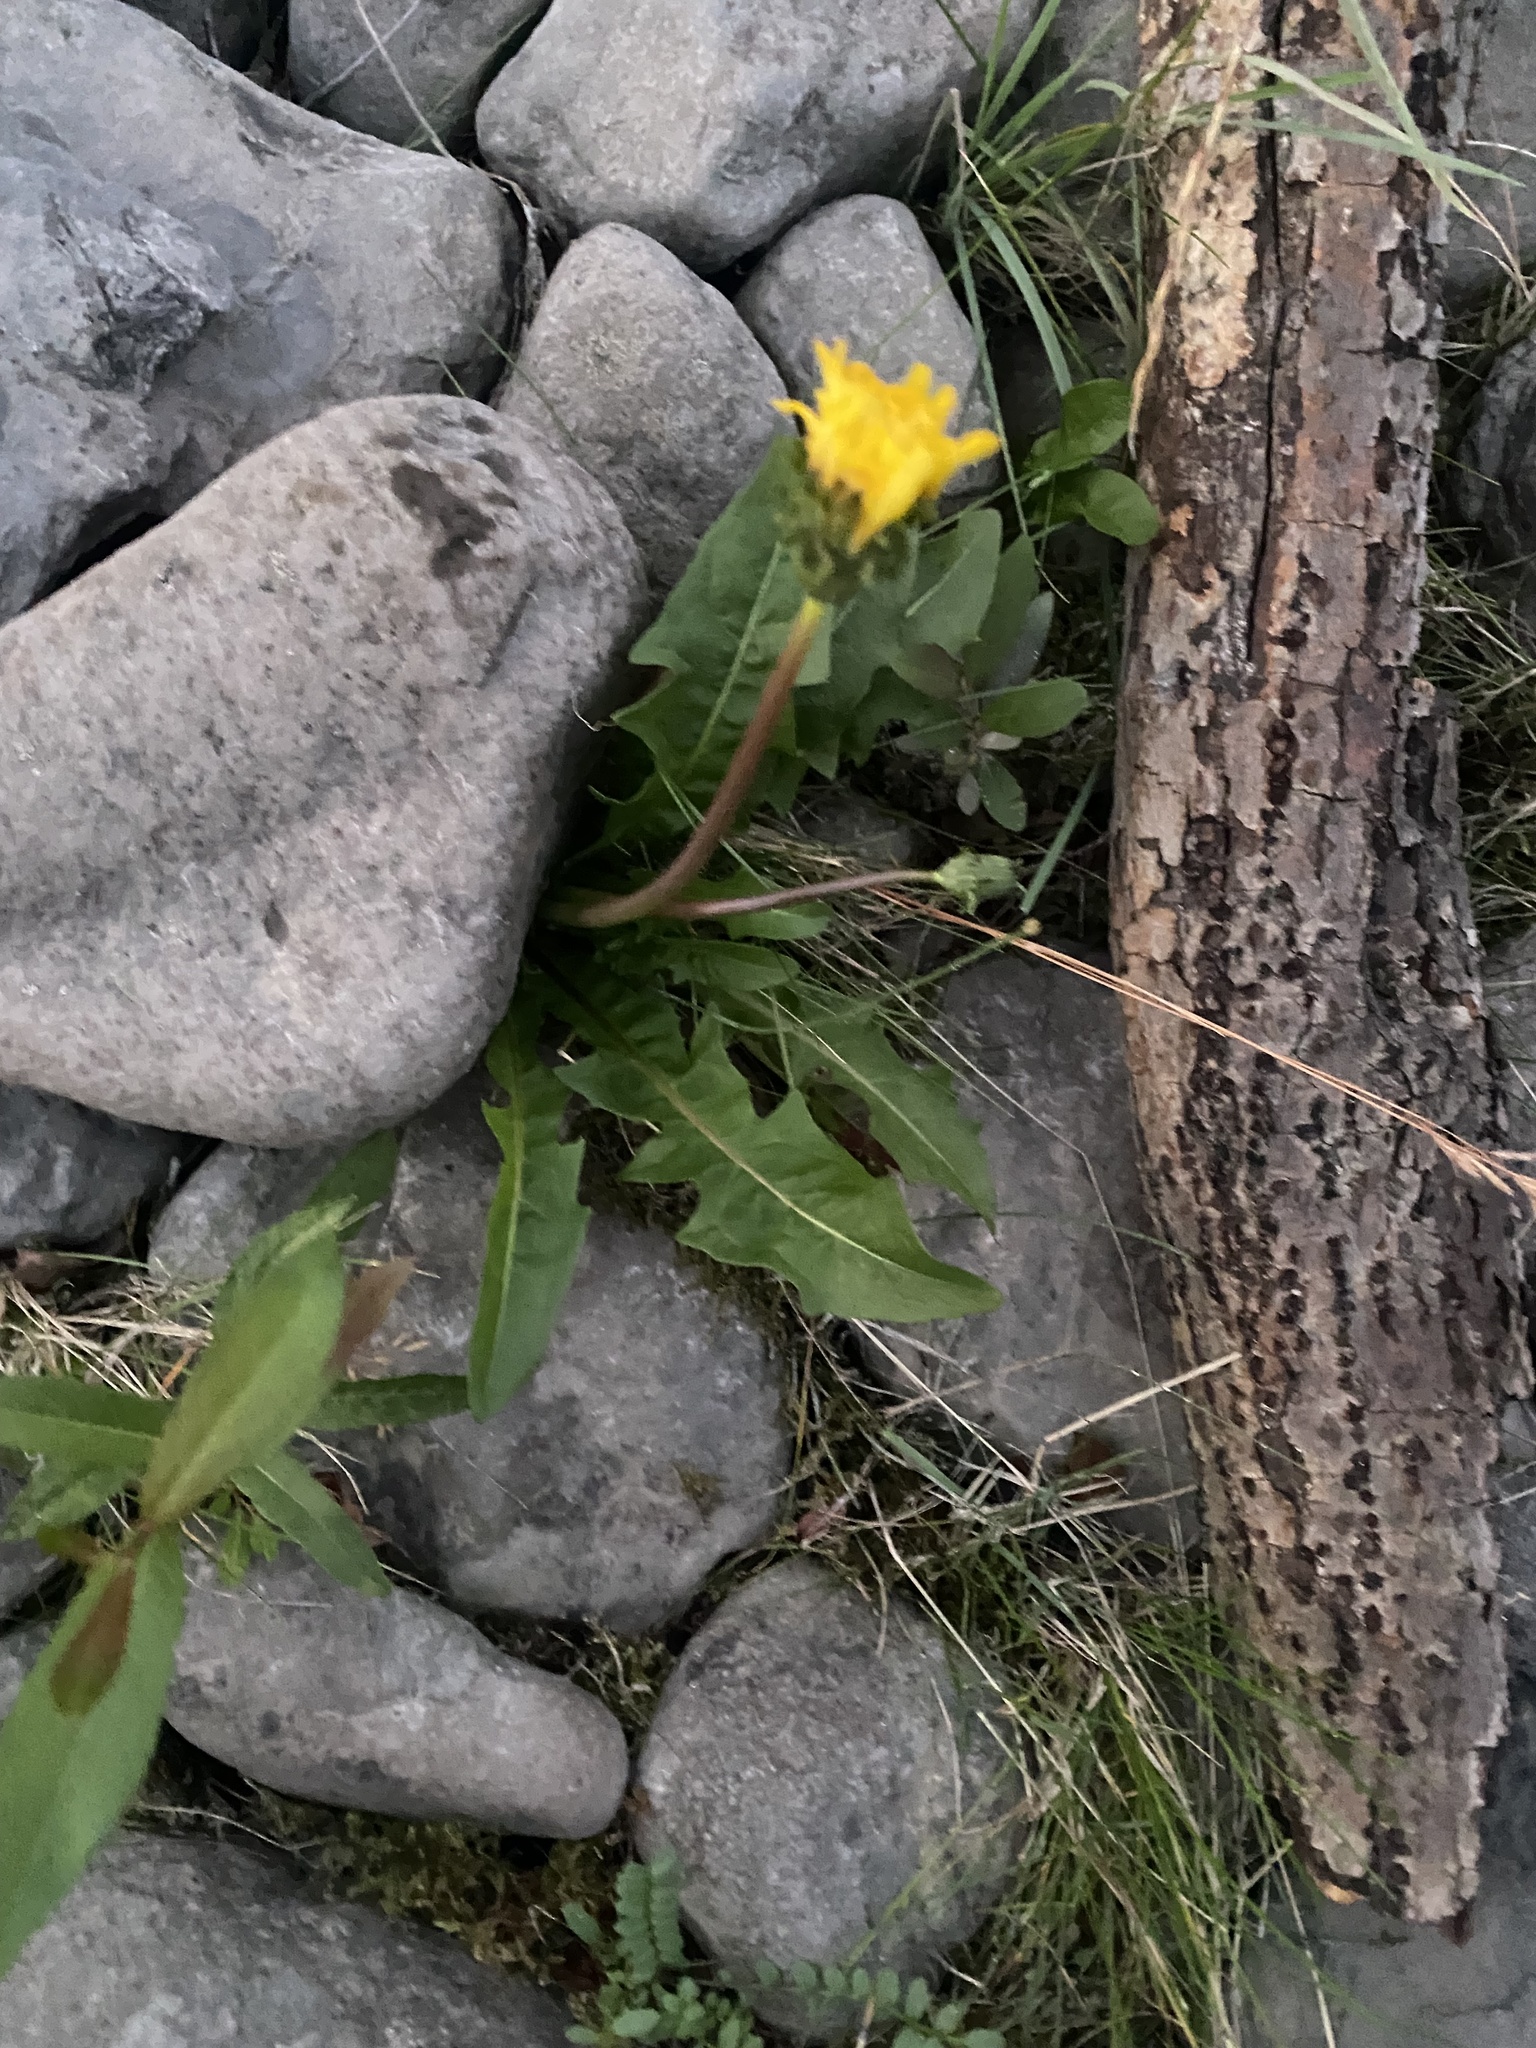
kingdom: Plantae
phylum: Tracheophyta
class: Magnoliopsida
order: Asterales
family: Asteraceae
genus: Taraxacum
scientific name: Taraxacum ceratophorum
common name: Horn-bearing dandelion
